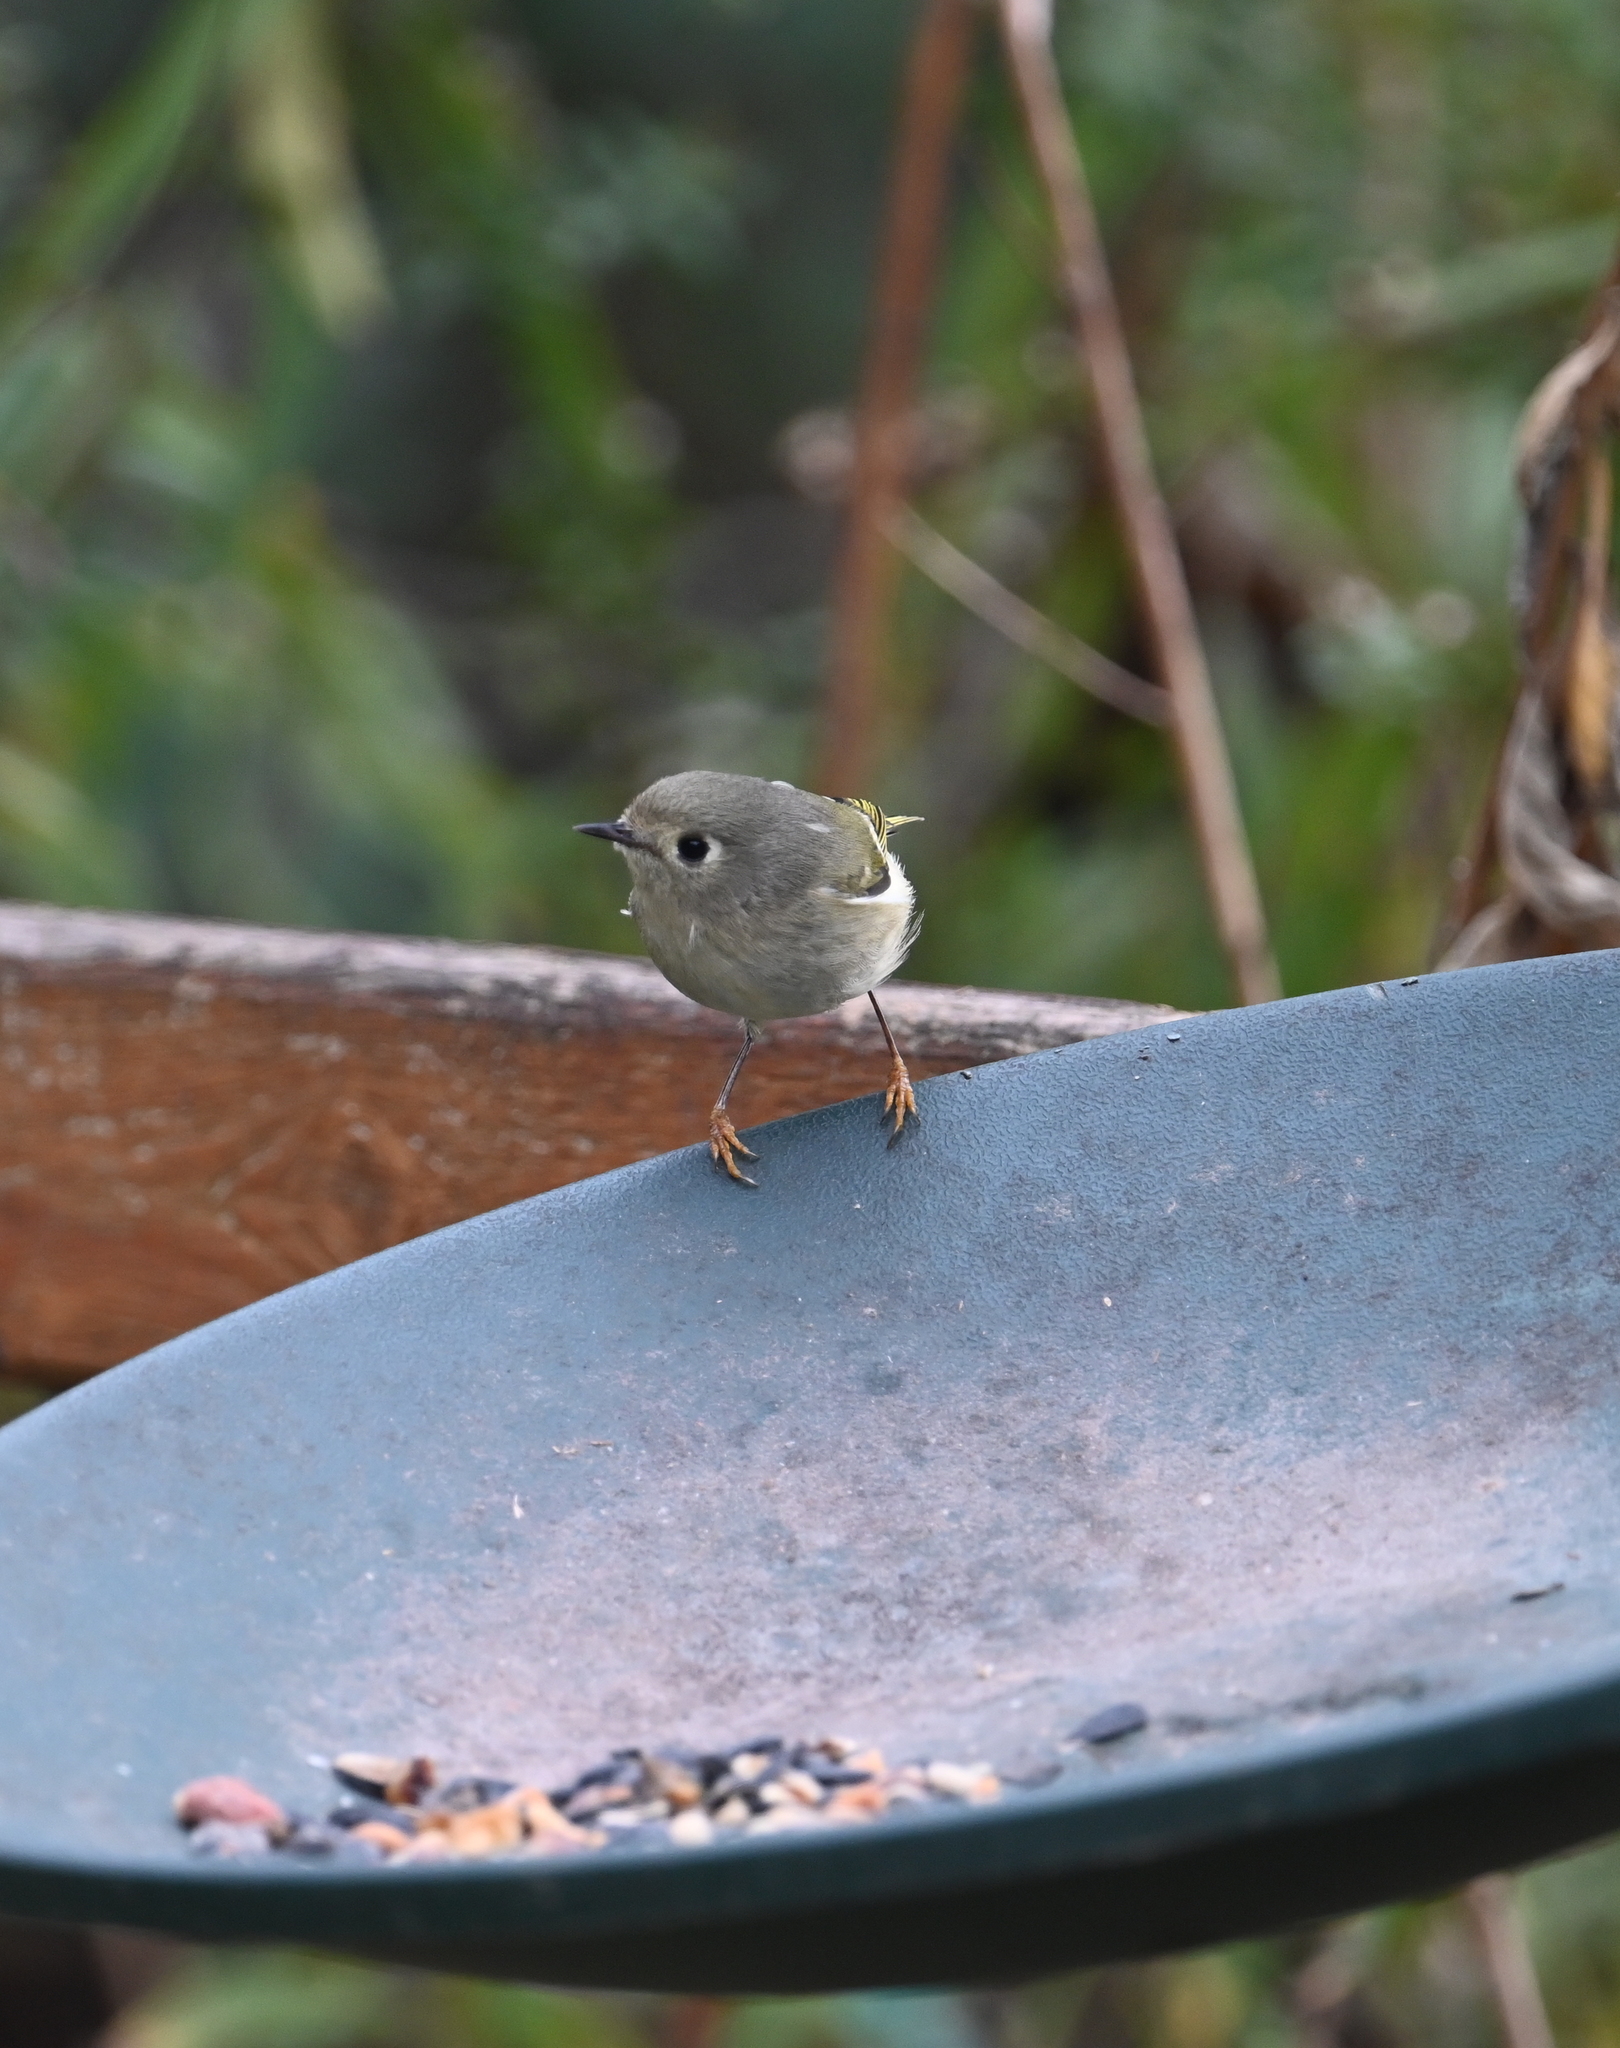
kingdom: Animalia
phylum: Chordata
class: Aves
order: Passeriformes
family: Regulidae
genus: Regulus
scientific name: Regulus calendula
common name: Ruby-crowned kinglet
